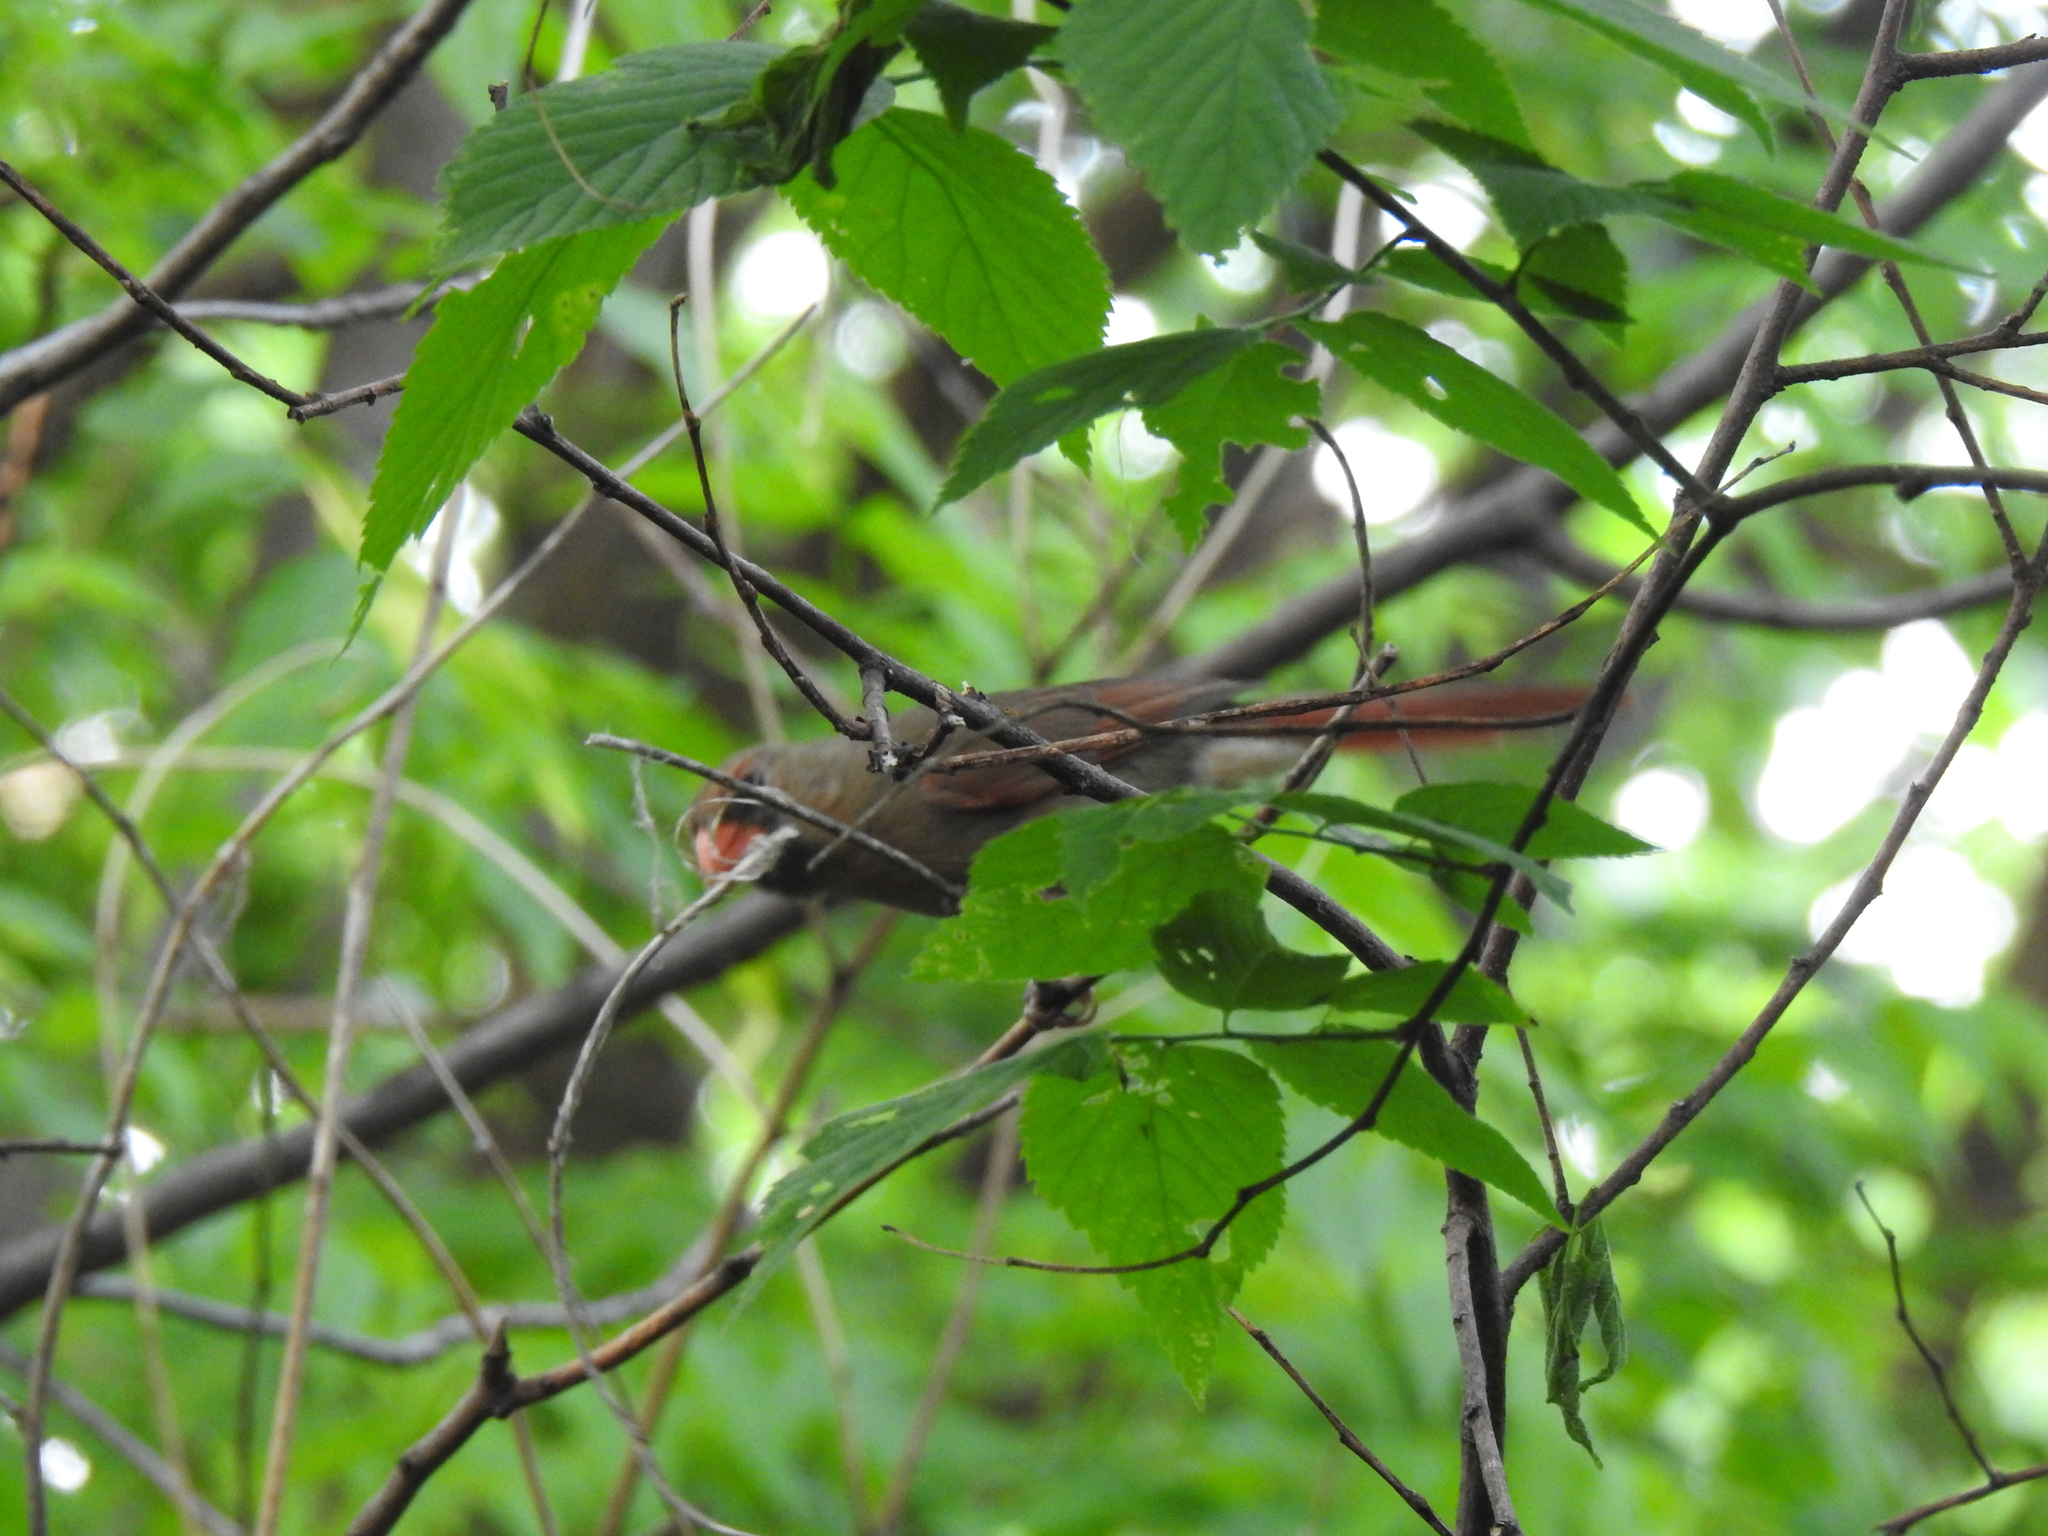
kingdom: Animalia
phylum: Chordata
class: Aves
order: Passeriformes
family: Cardinalidae
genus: Cardinalis
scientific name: Cardinalis cardinalis
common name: Northern cardinal
